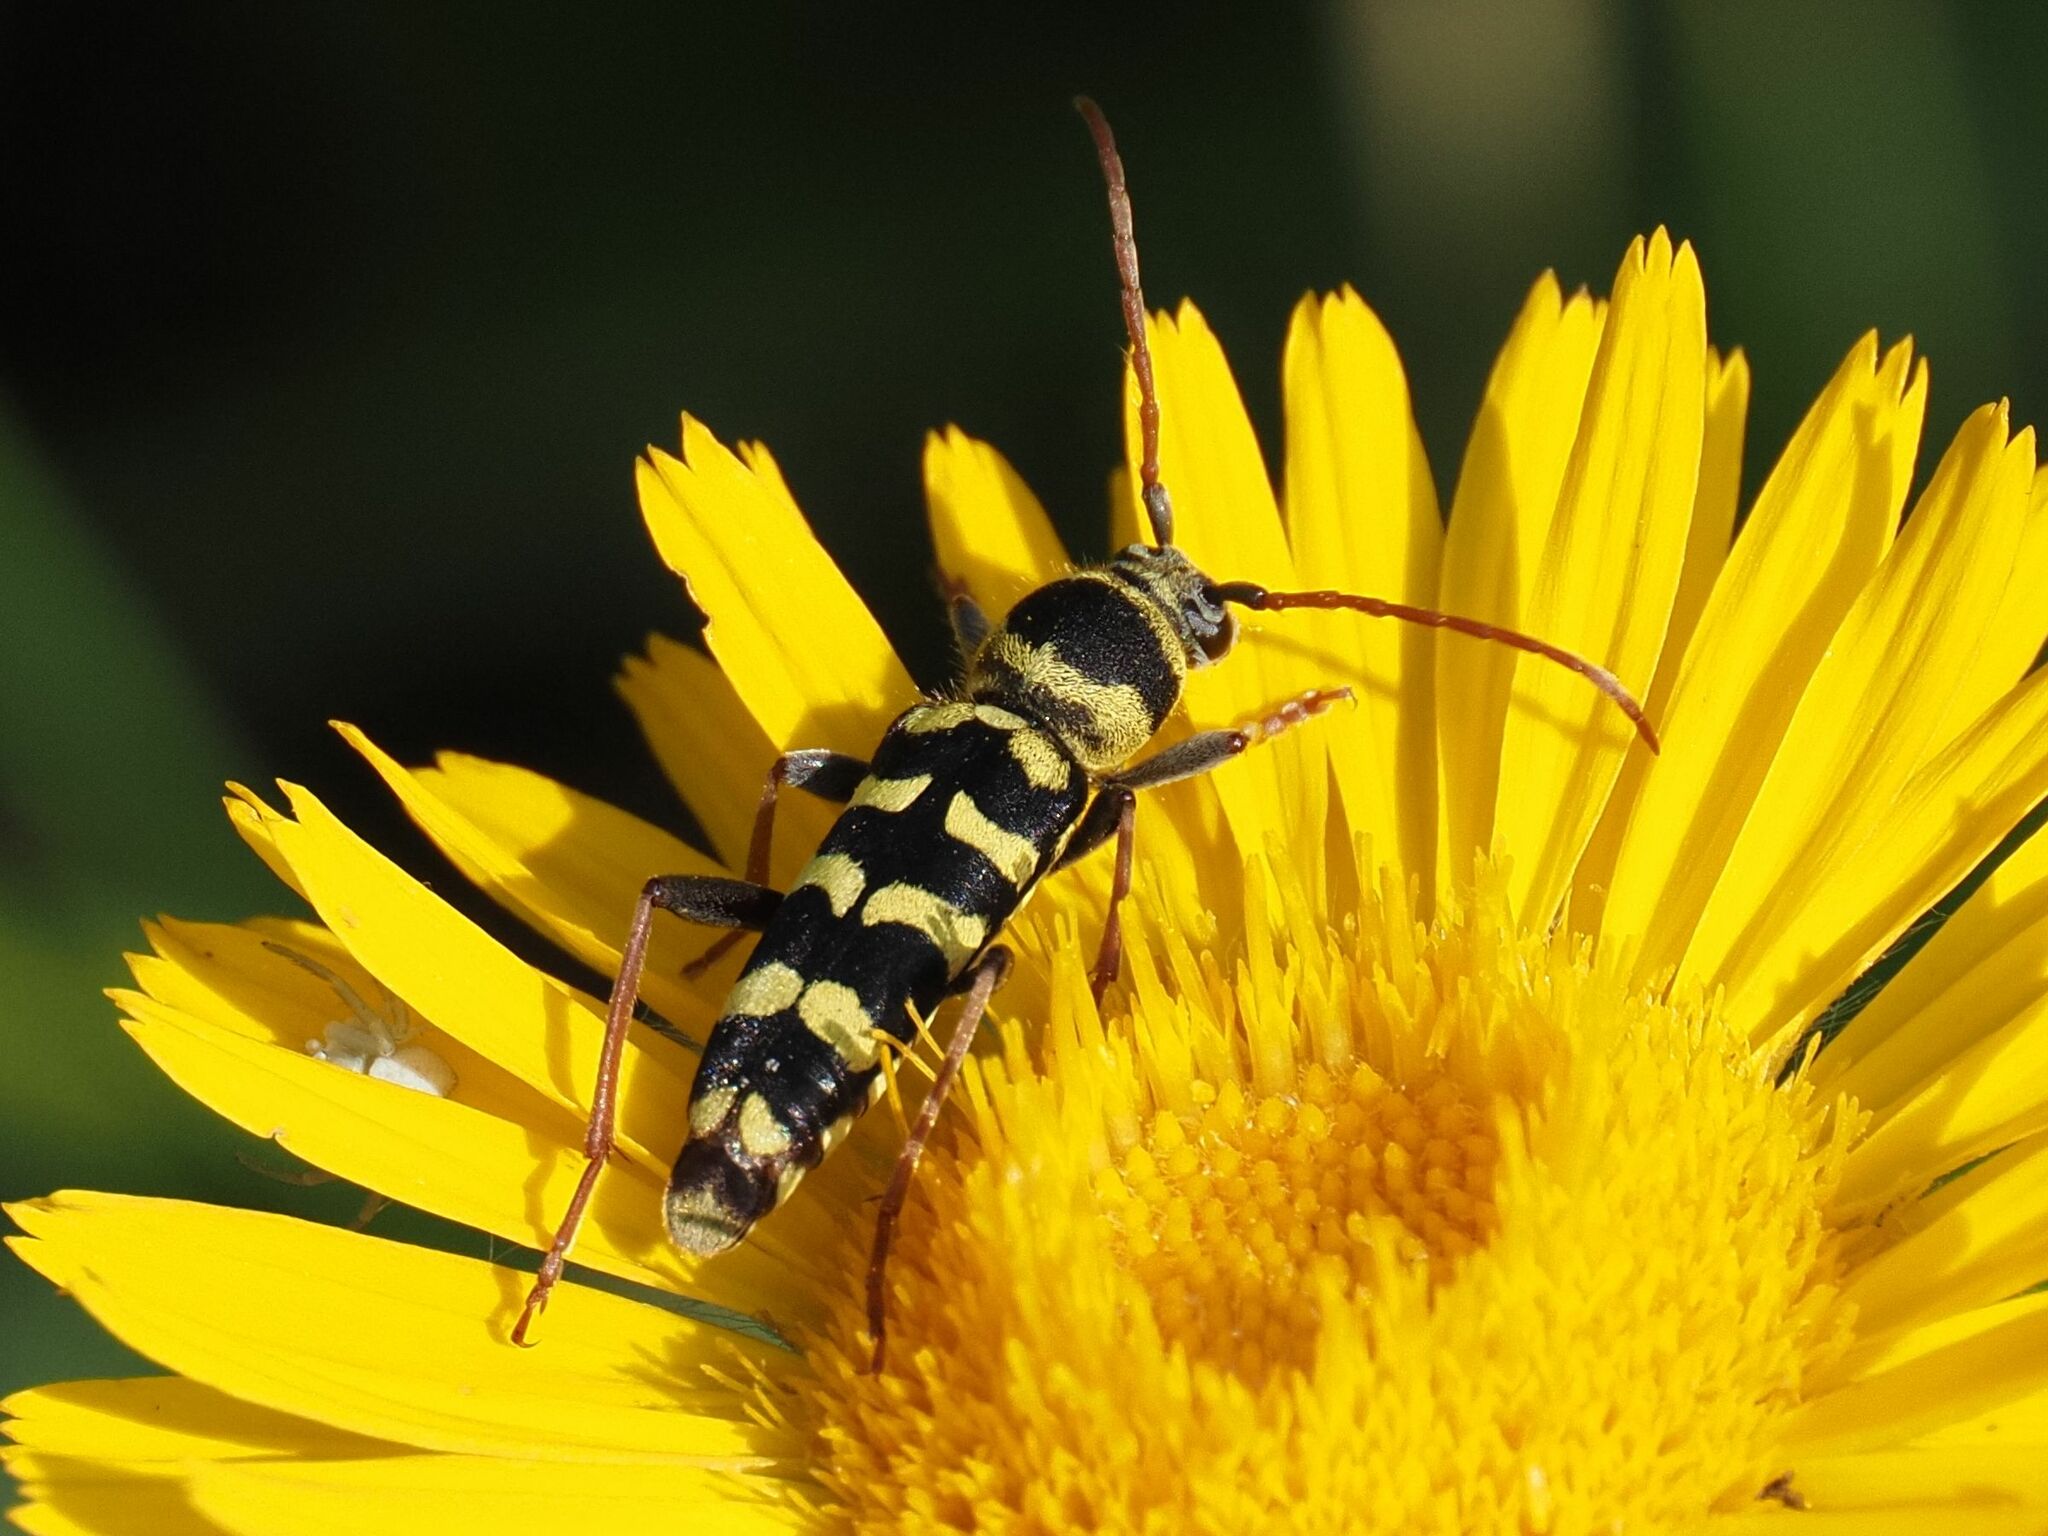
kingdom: Animalia
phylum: Arthropoda
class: Insecta
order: Coleoptera
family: Cerambycidae
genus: Plagionotus
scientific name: Plagionotus floralis
